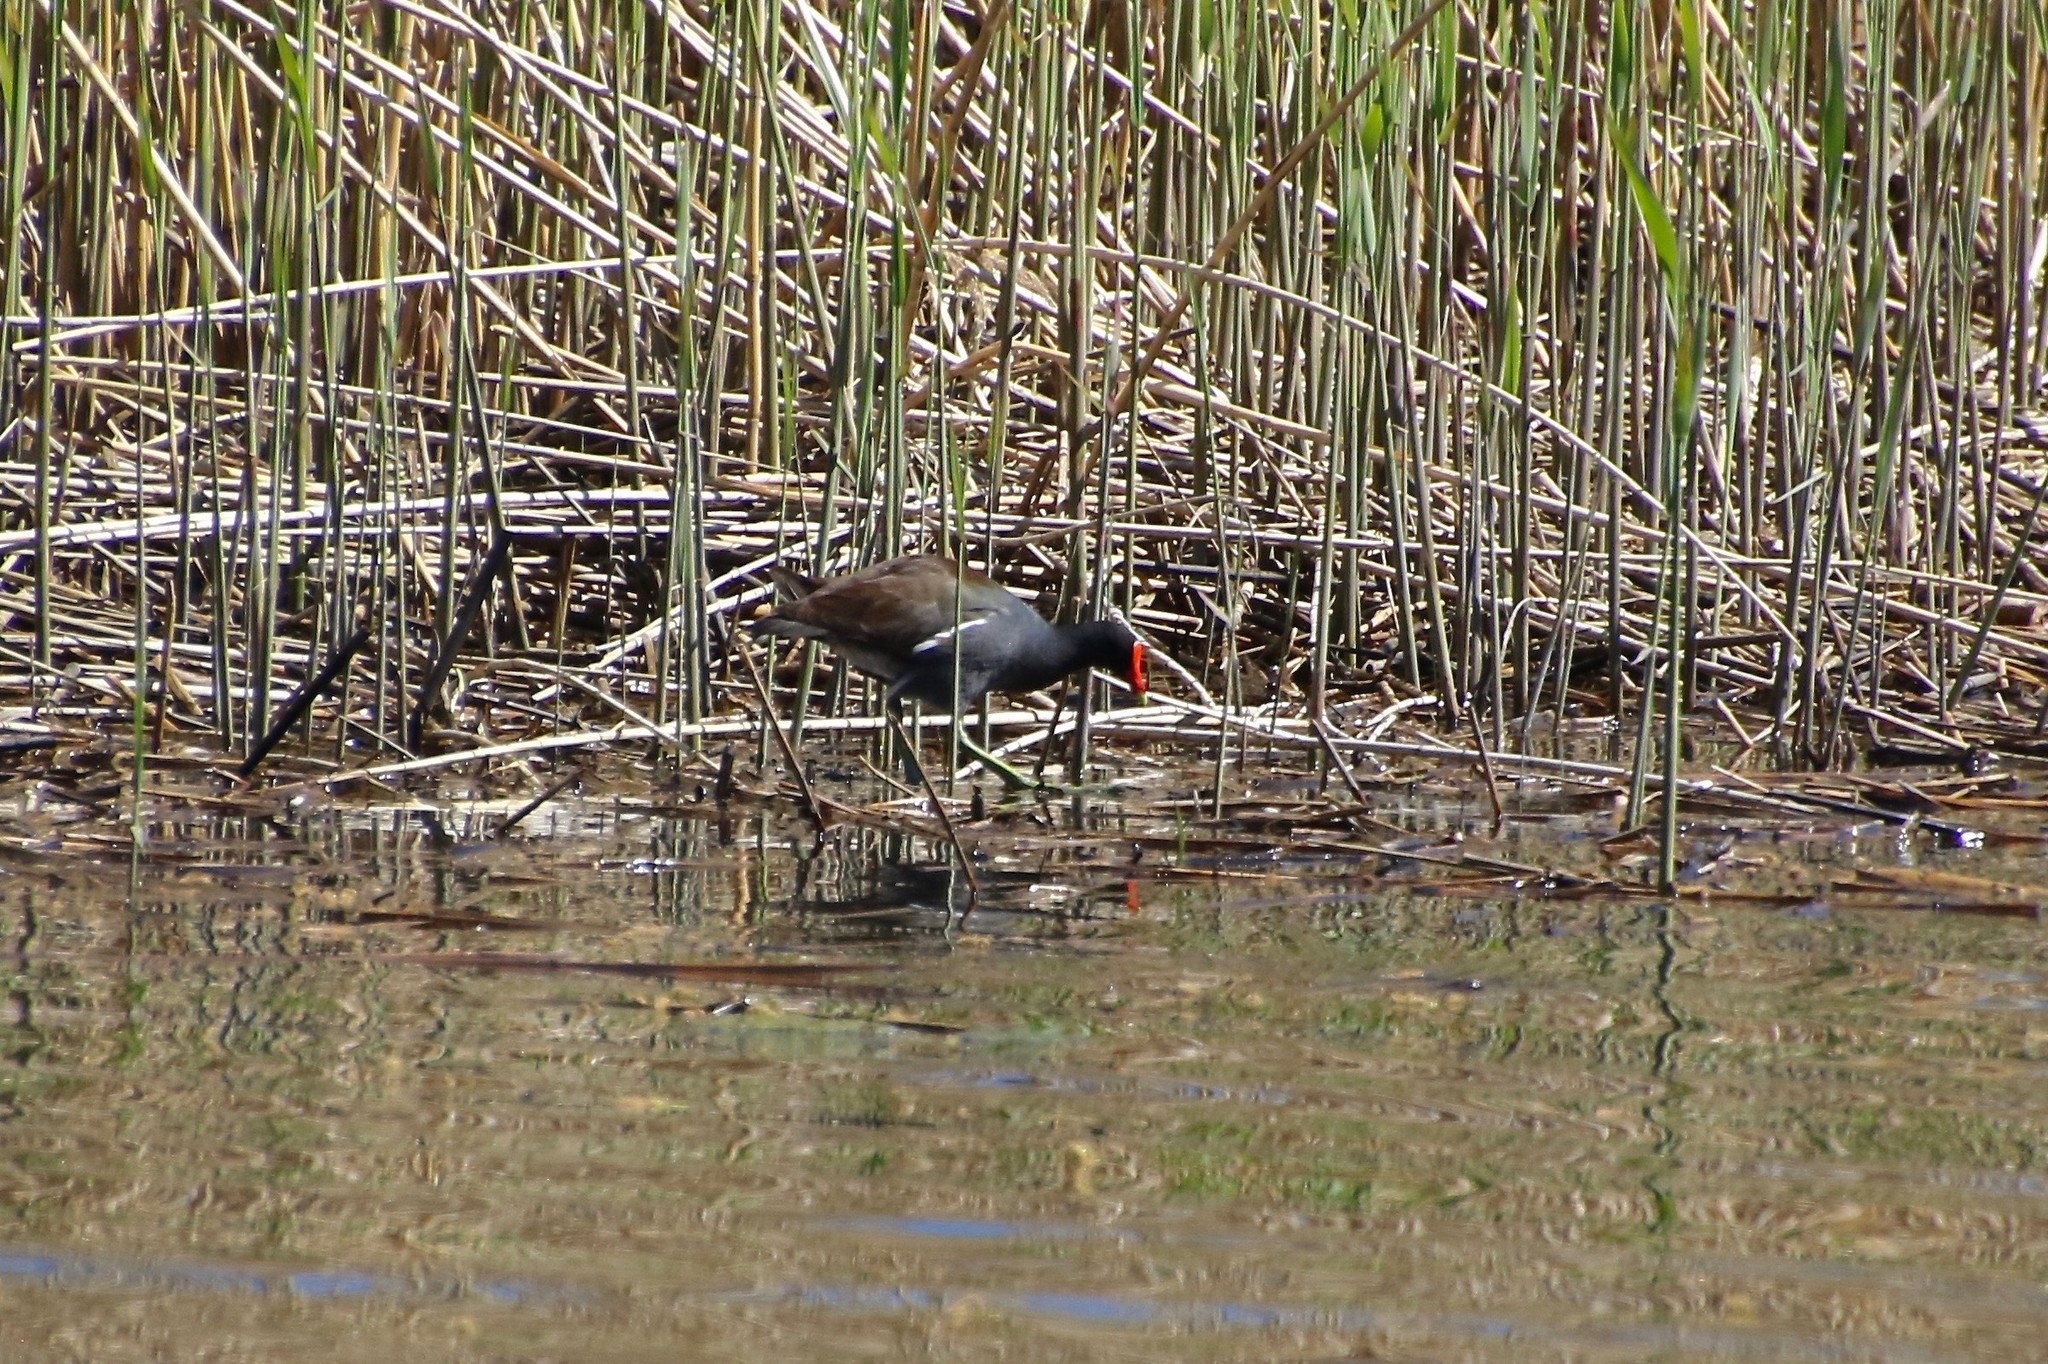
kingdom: Animalia
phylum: Chordata
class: Aves
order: Gruiformes
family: Rallidae
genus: Gallinula
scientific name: Gallinula chloropus
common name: Common moorhen
